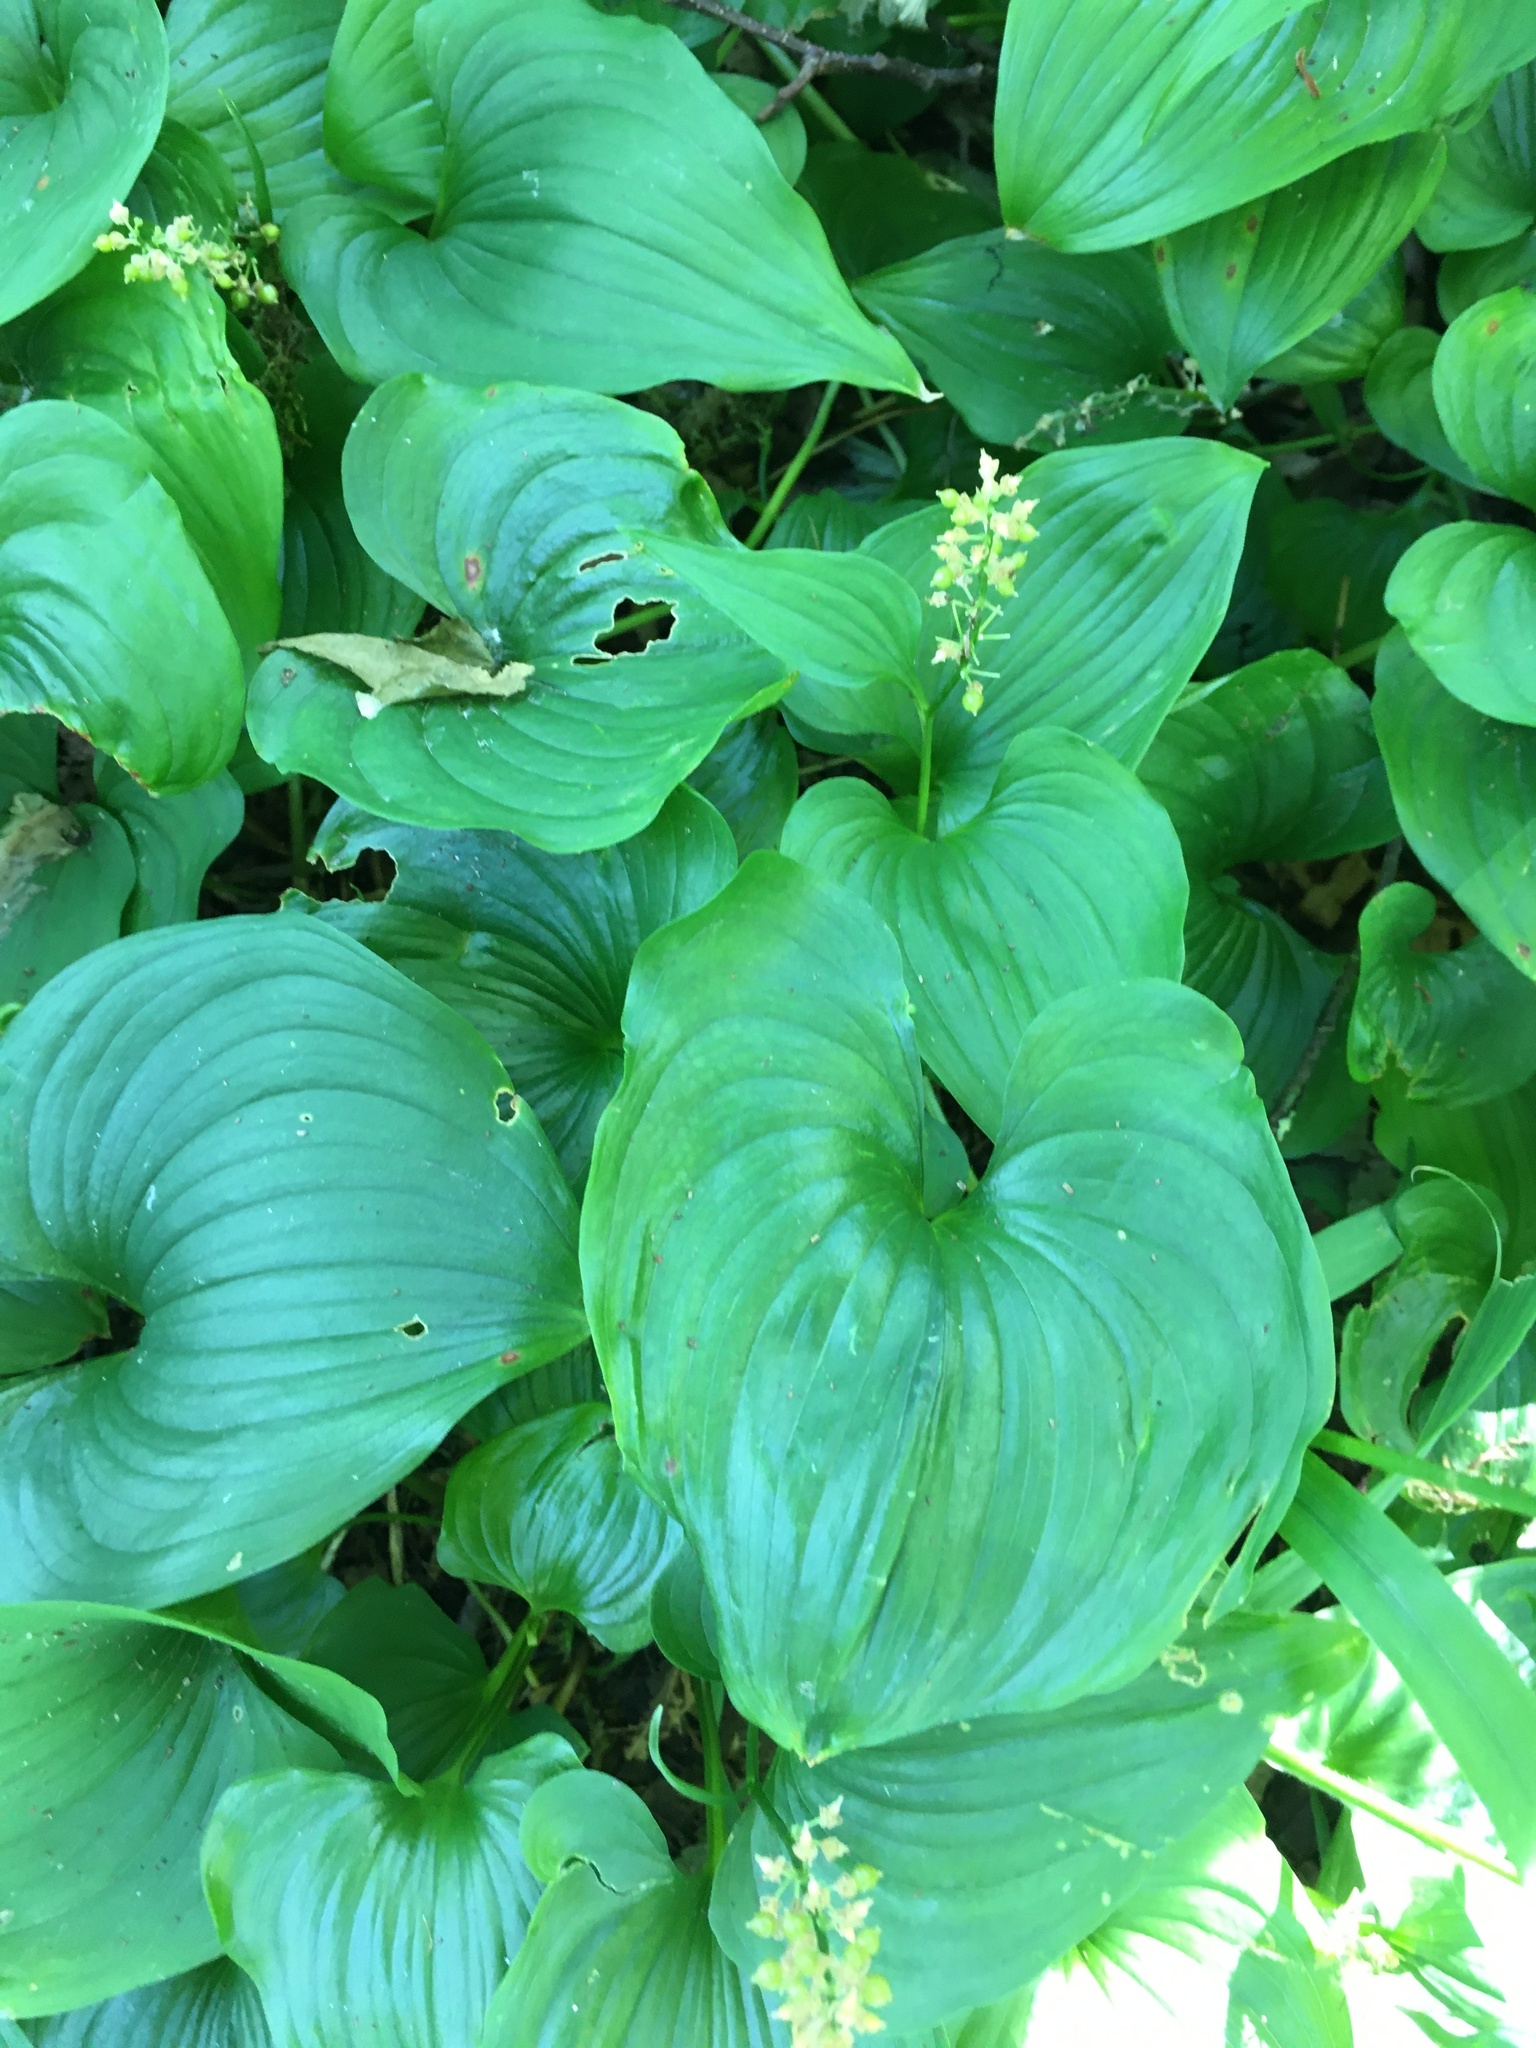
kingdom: Plantae
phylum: Tracheophyta
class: Liliopsida
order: Asparagales
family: Asparagaceae
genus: Maianthemum
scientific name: Maianthemum dilatatum
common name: False lily-of-the-valley
